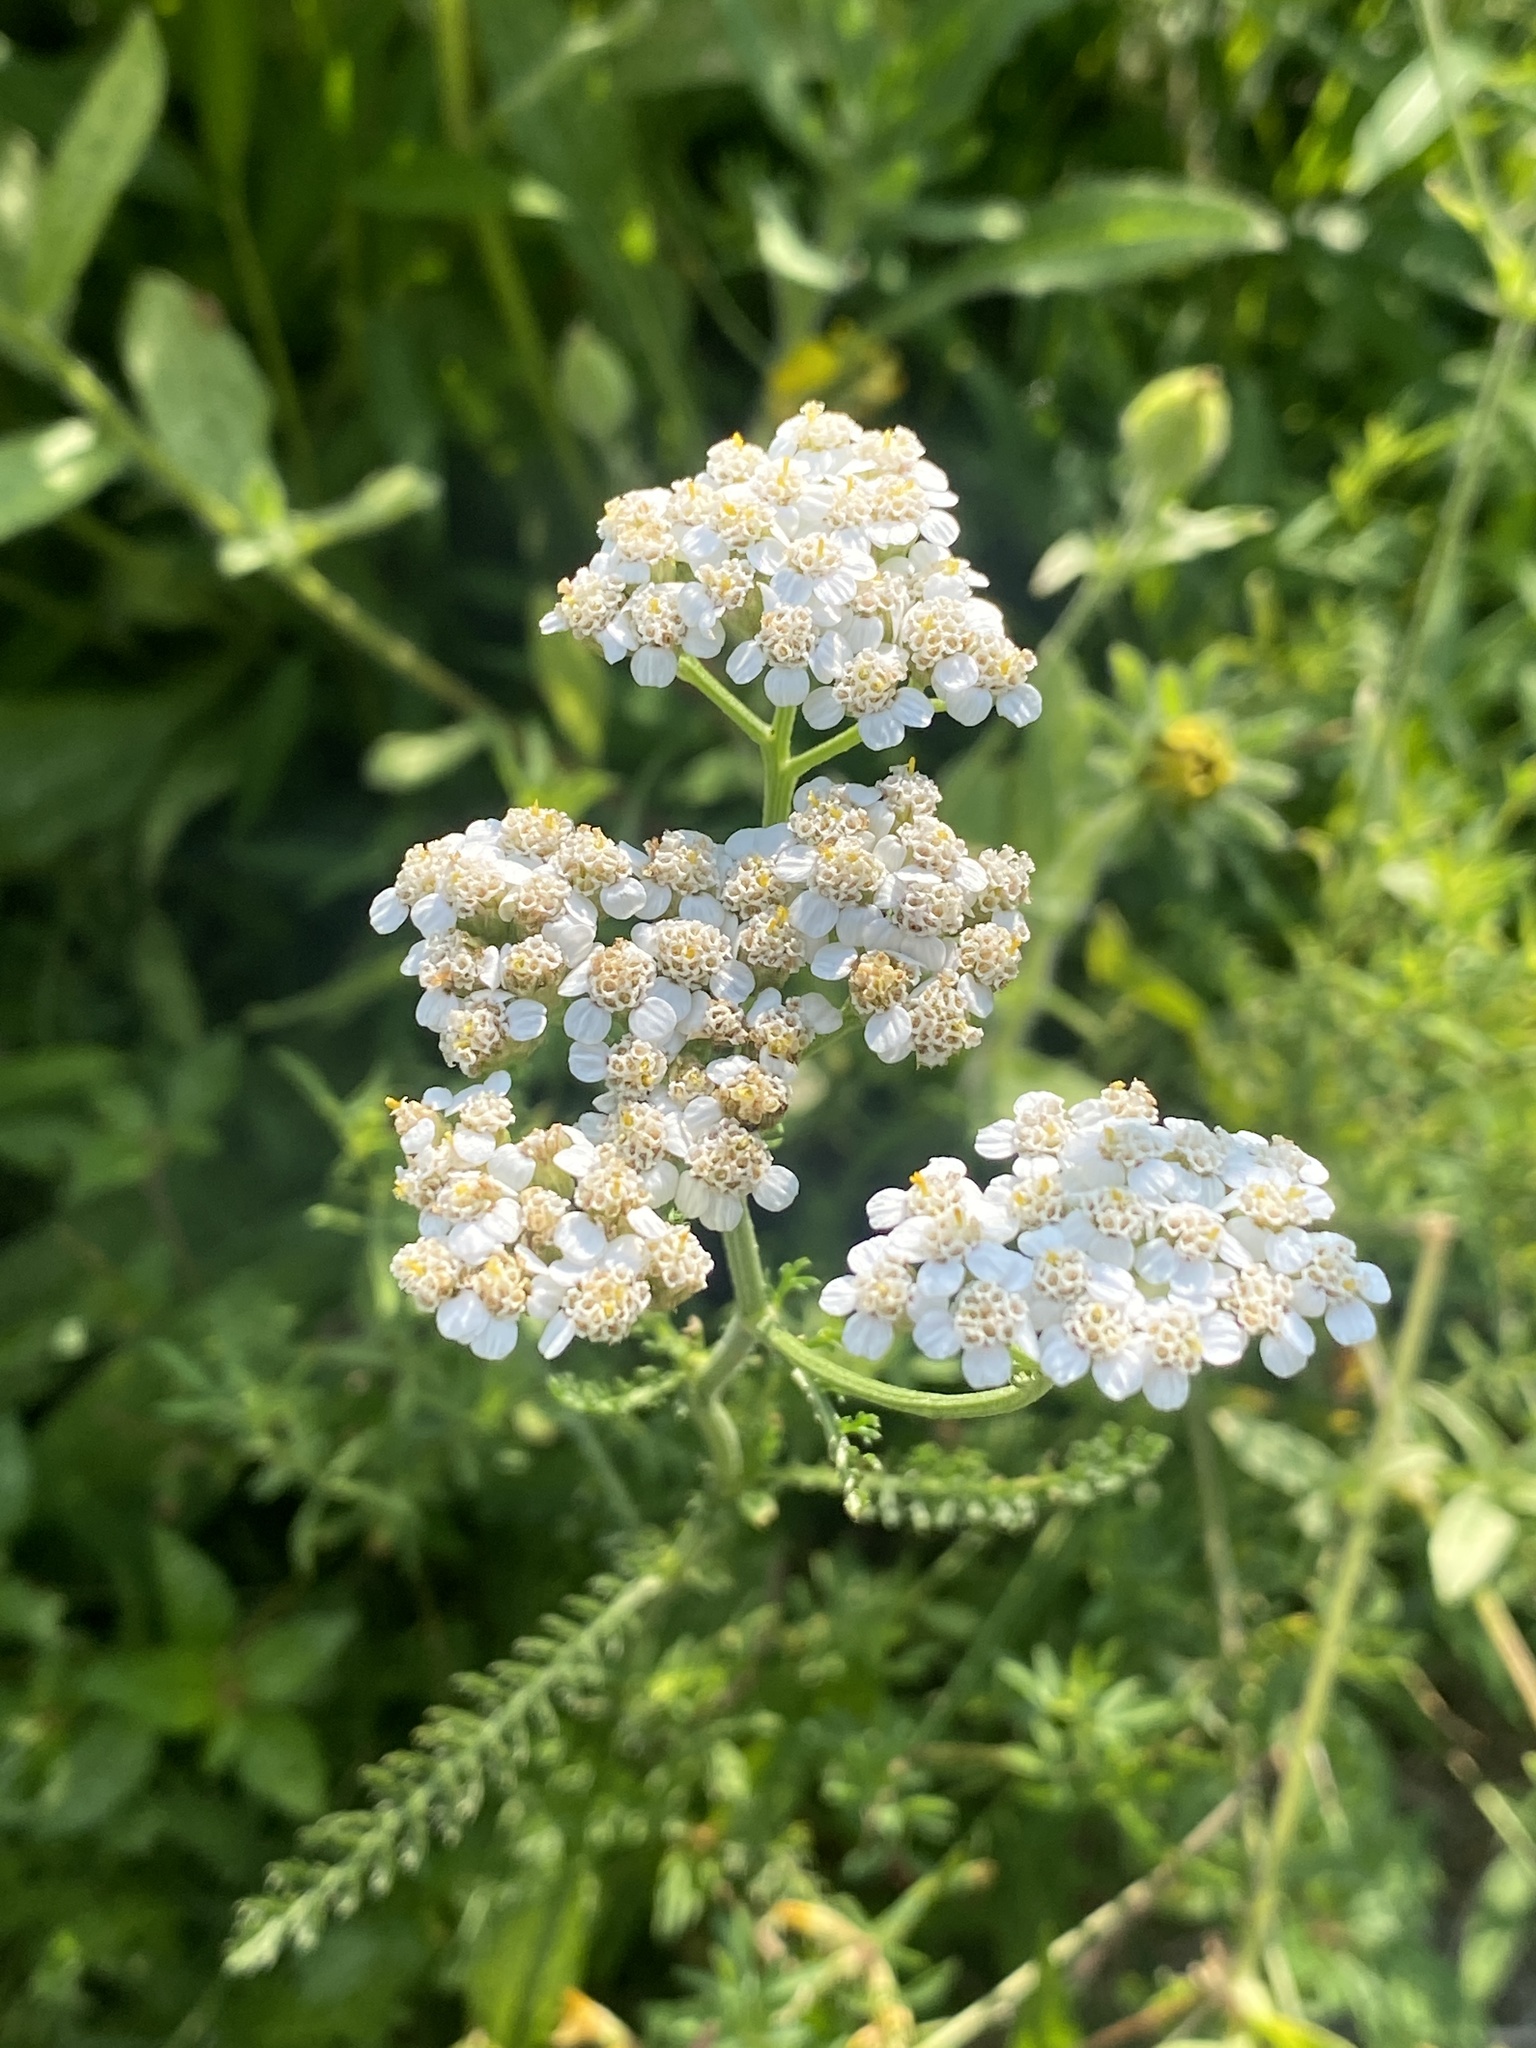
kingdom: Plantae
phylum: Tracheophyta
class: Magnoliopsida
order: Asterales
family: Asteraceae
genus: Achillea
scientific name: Achillea millefolium
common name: Yarrow
